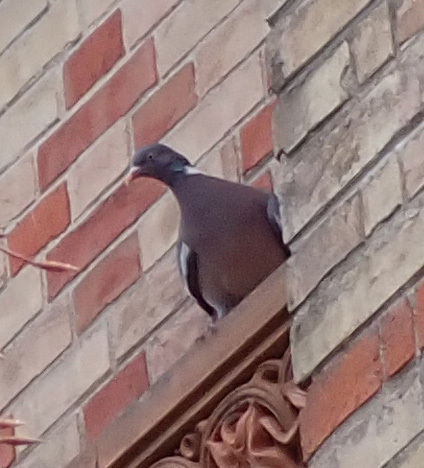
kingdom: Animalia
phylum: Chordata
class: Aves
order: Columbiformes
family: Columbidae
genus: Columba
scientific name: Columba palumbus
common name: Common wood pigeon
